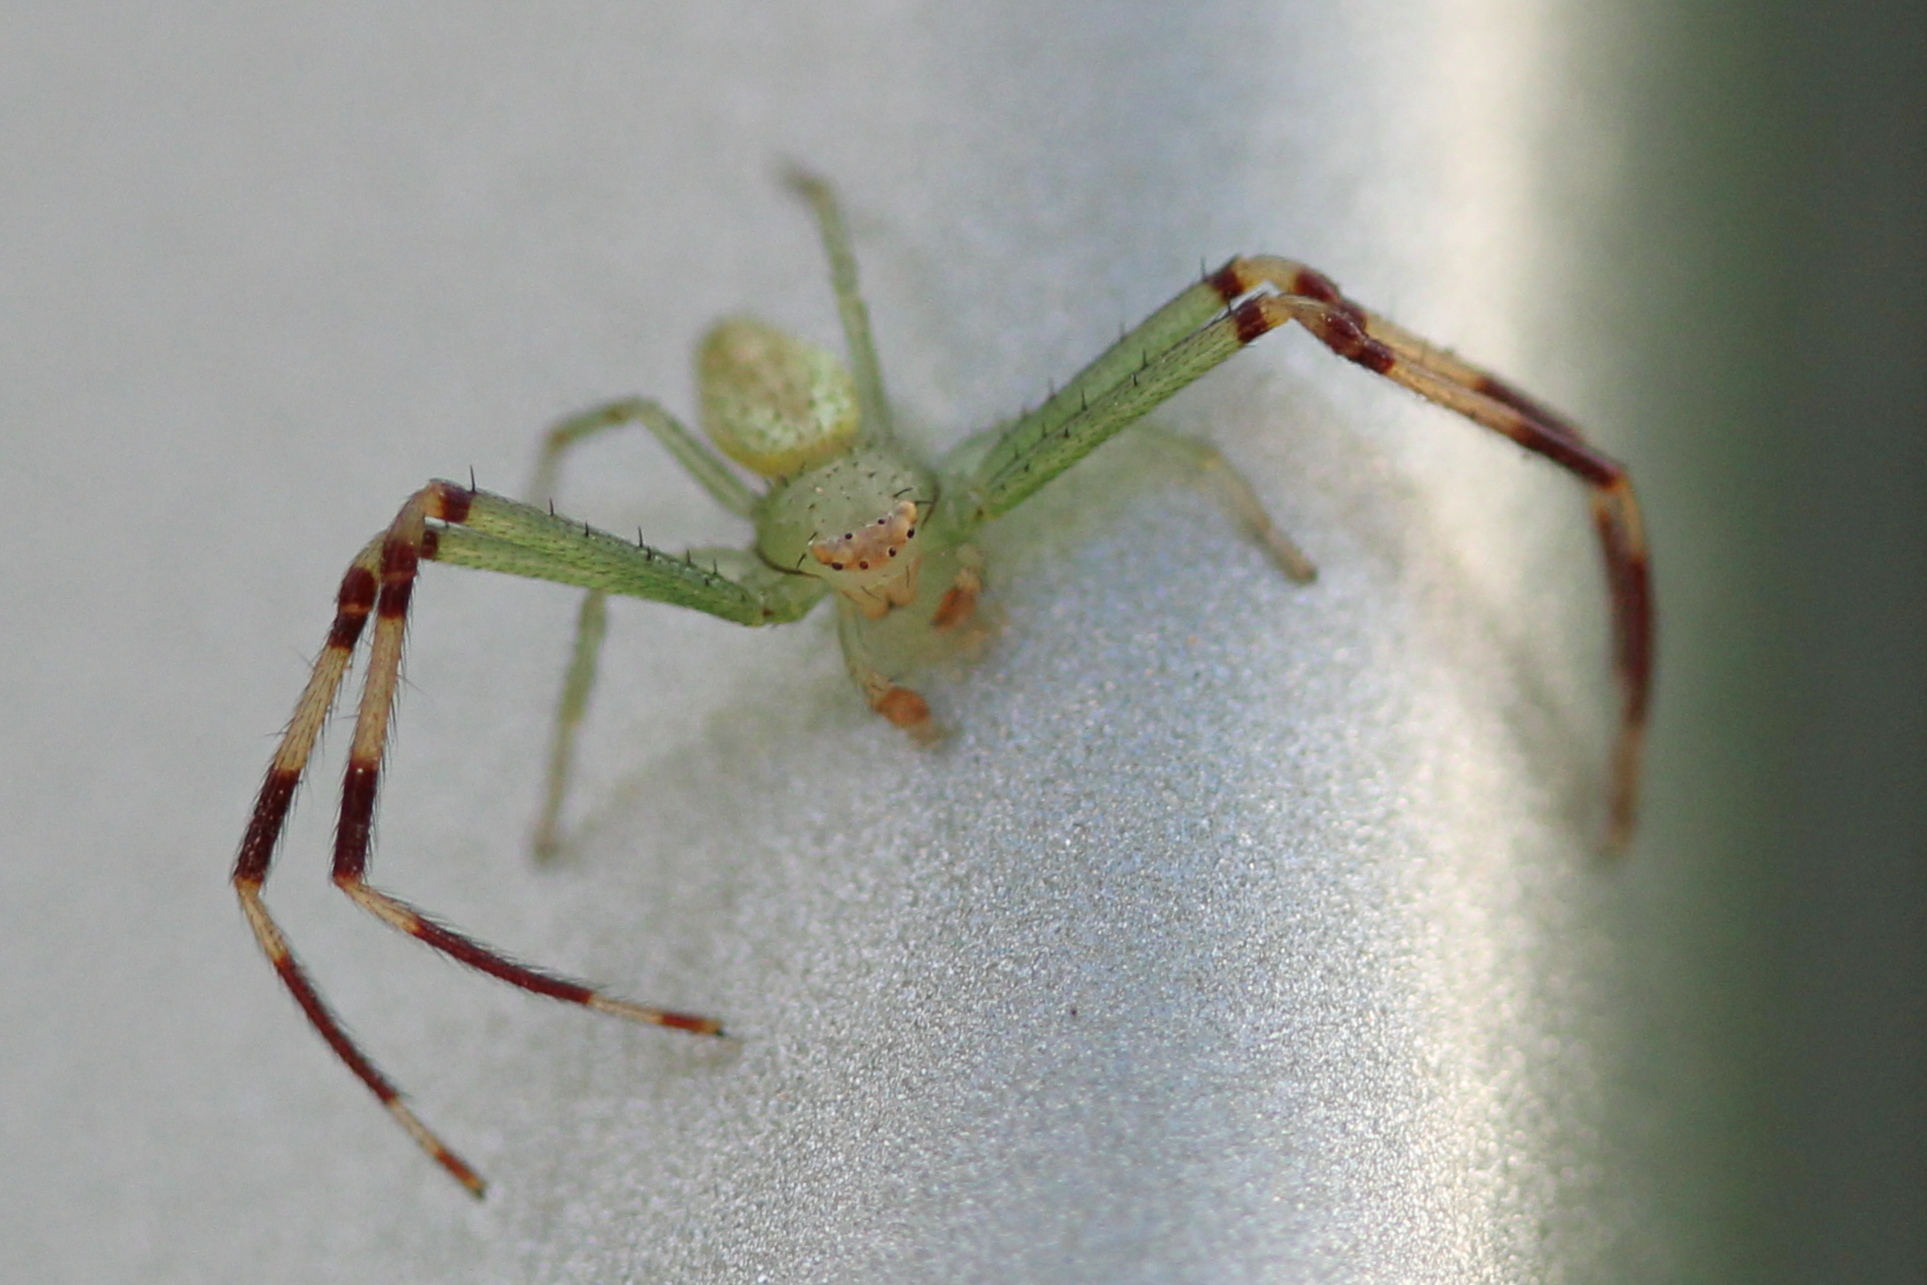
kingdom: Animalia
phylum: Arthropoda
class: Arachnida
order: Araneae
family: Thomisidae
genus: Misumessus
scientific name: Misumessus oblongus
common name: American green crab spider
